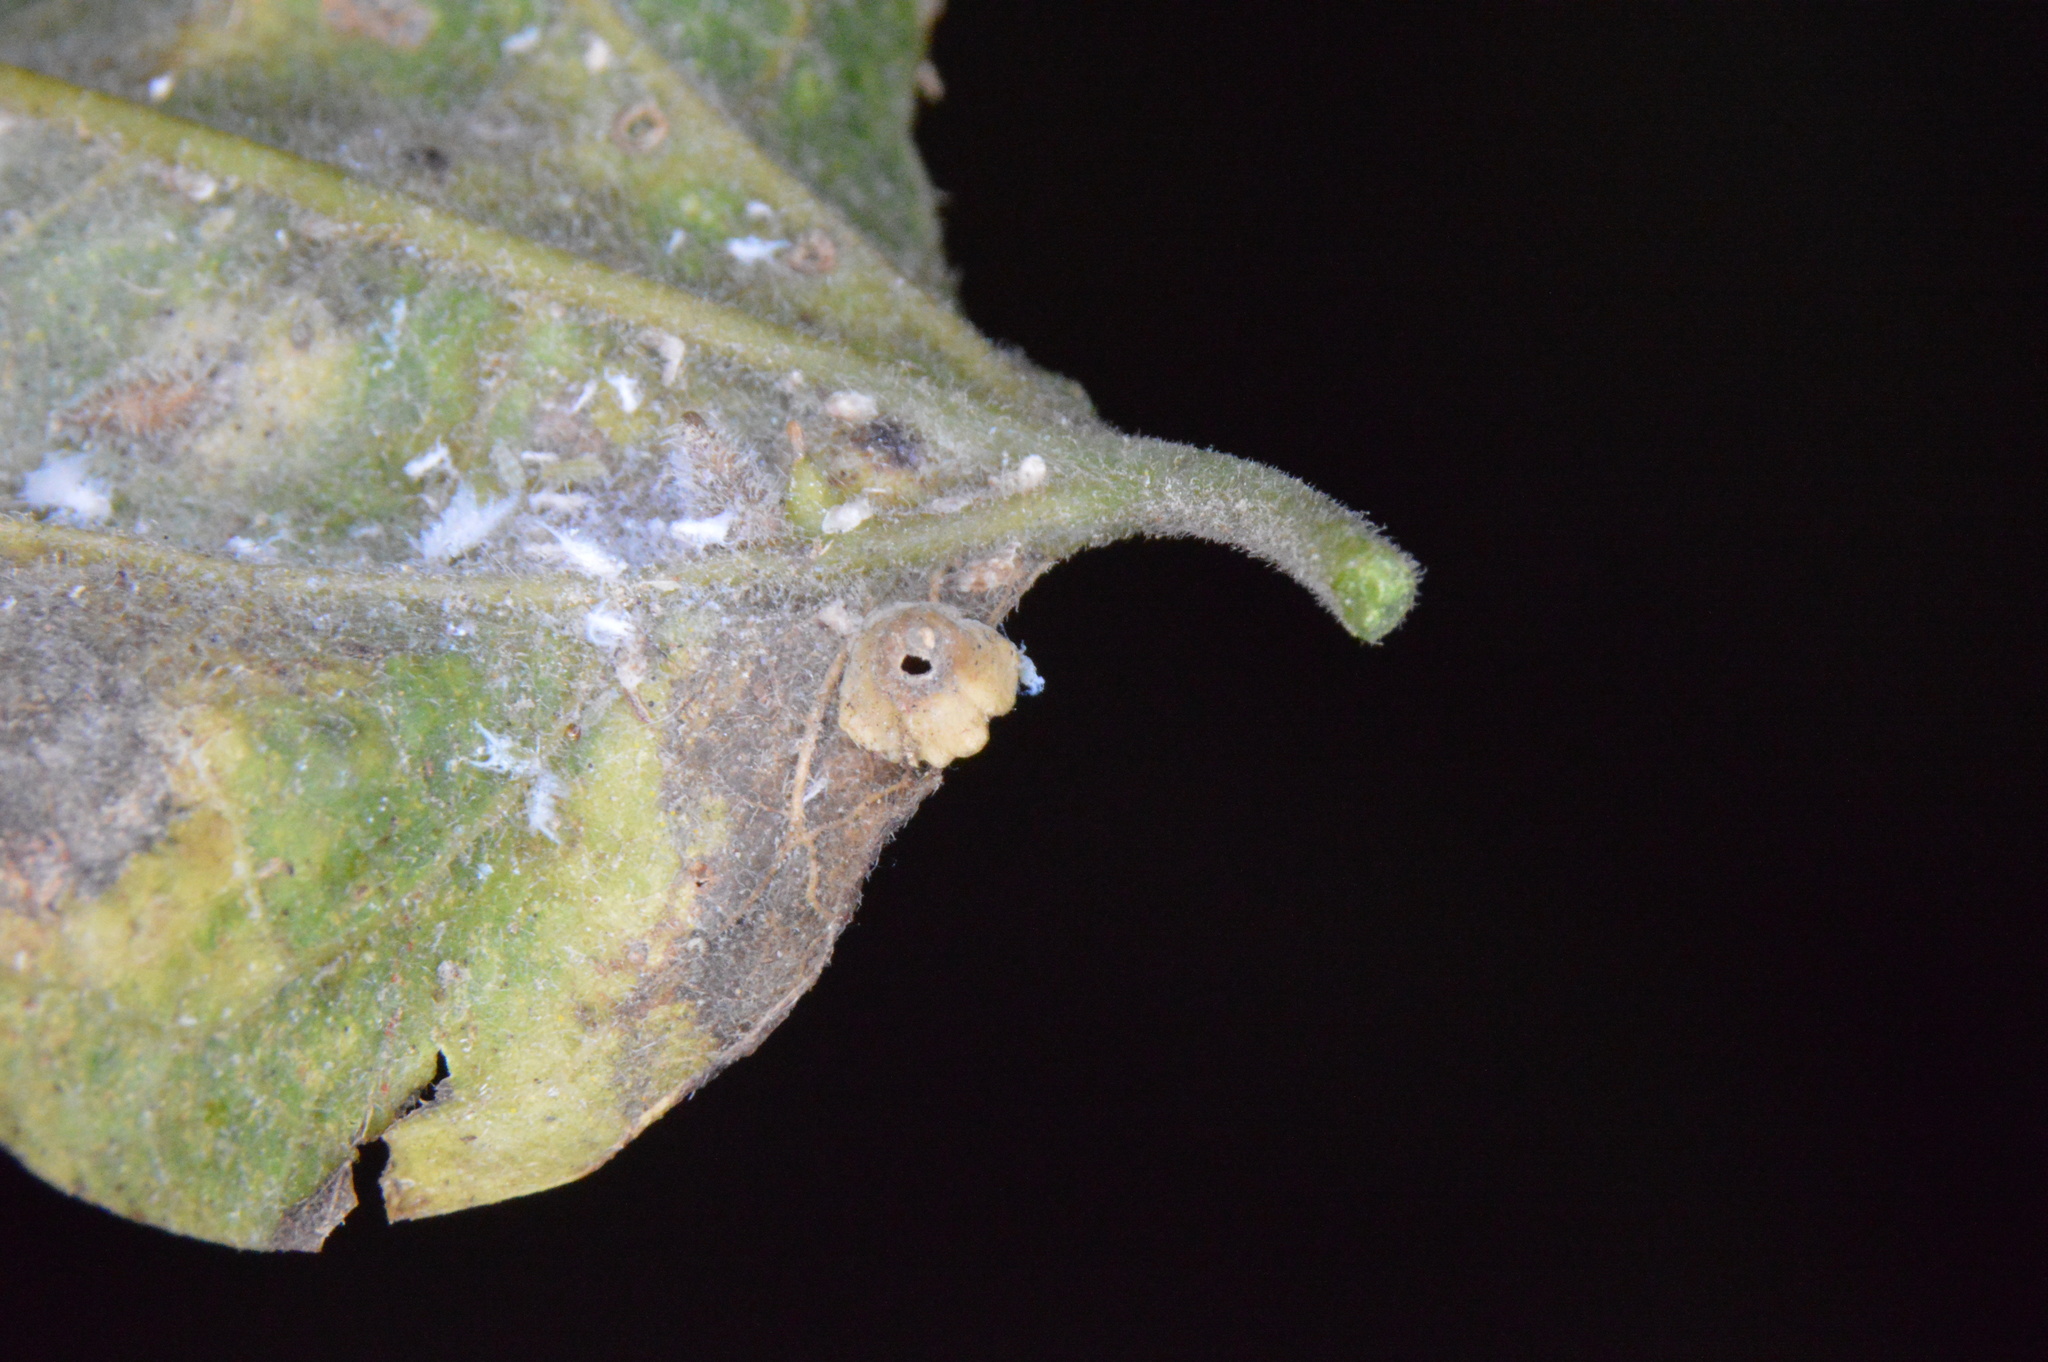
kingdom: Animalia
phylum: Arthropoda
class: Insecta
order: Diptera
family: Cecidomyiidae
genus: Celticecis
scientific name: Celticecis spiniformis
